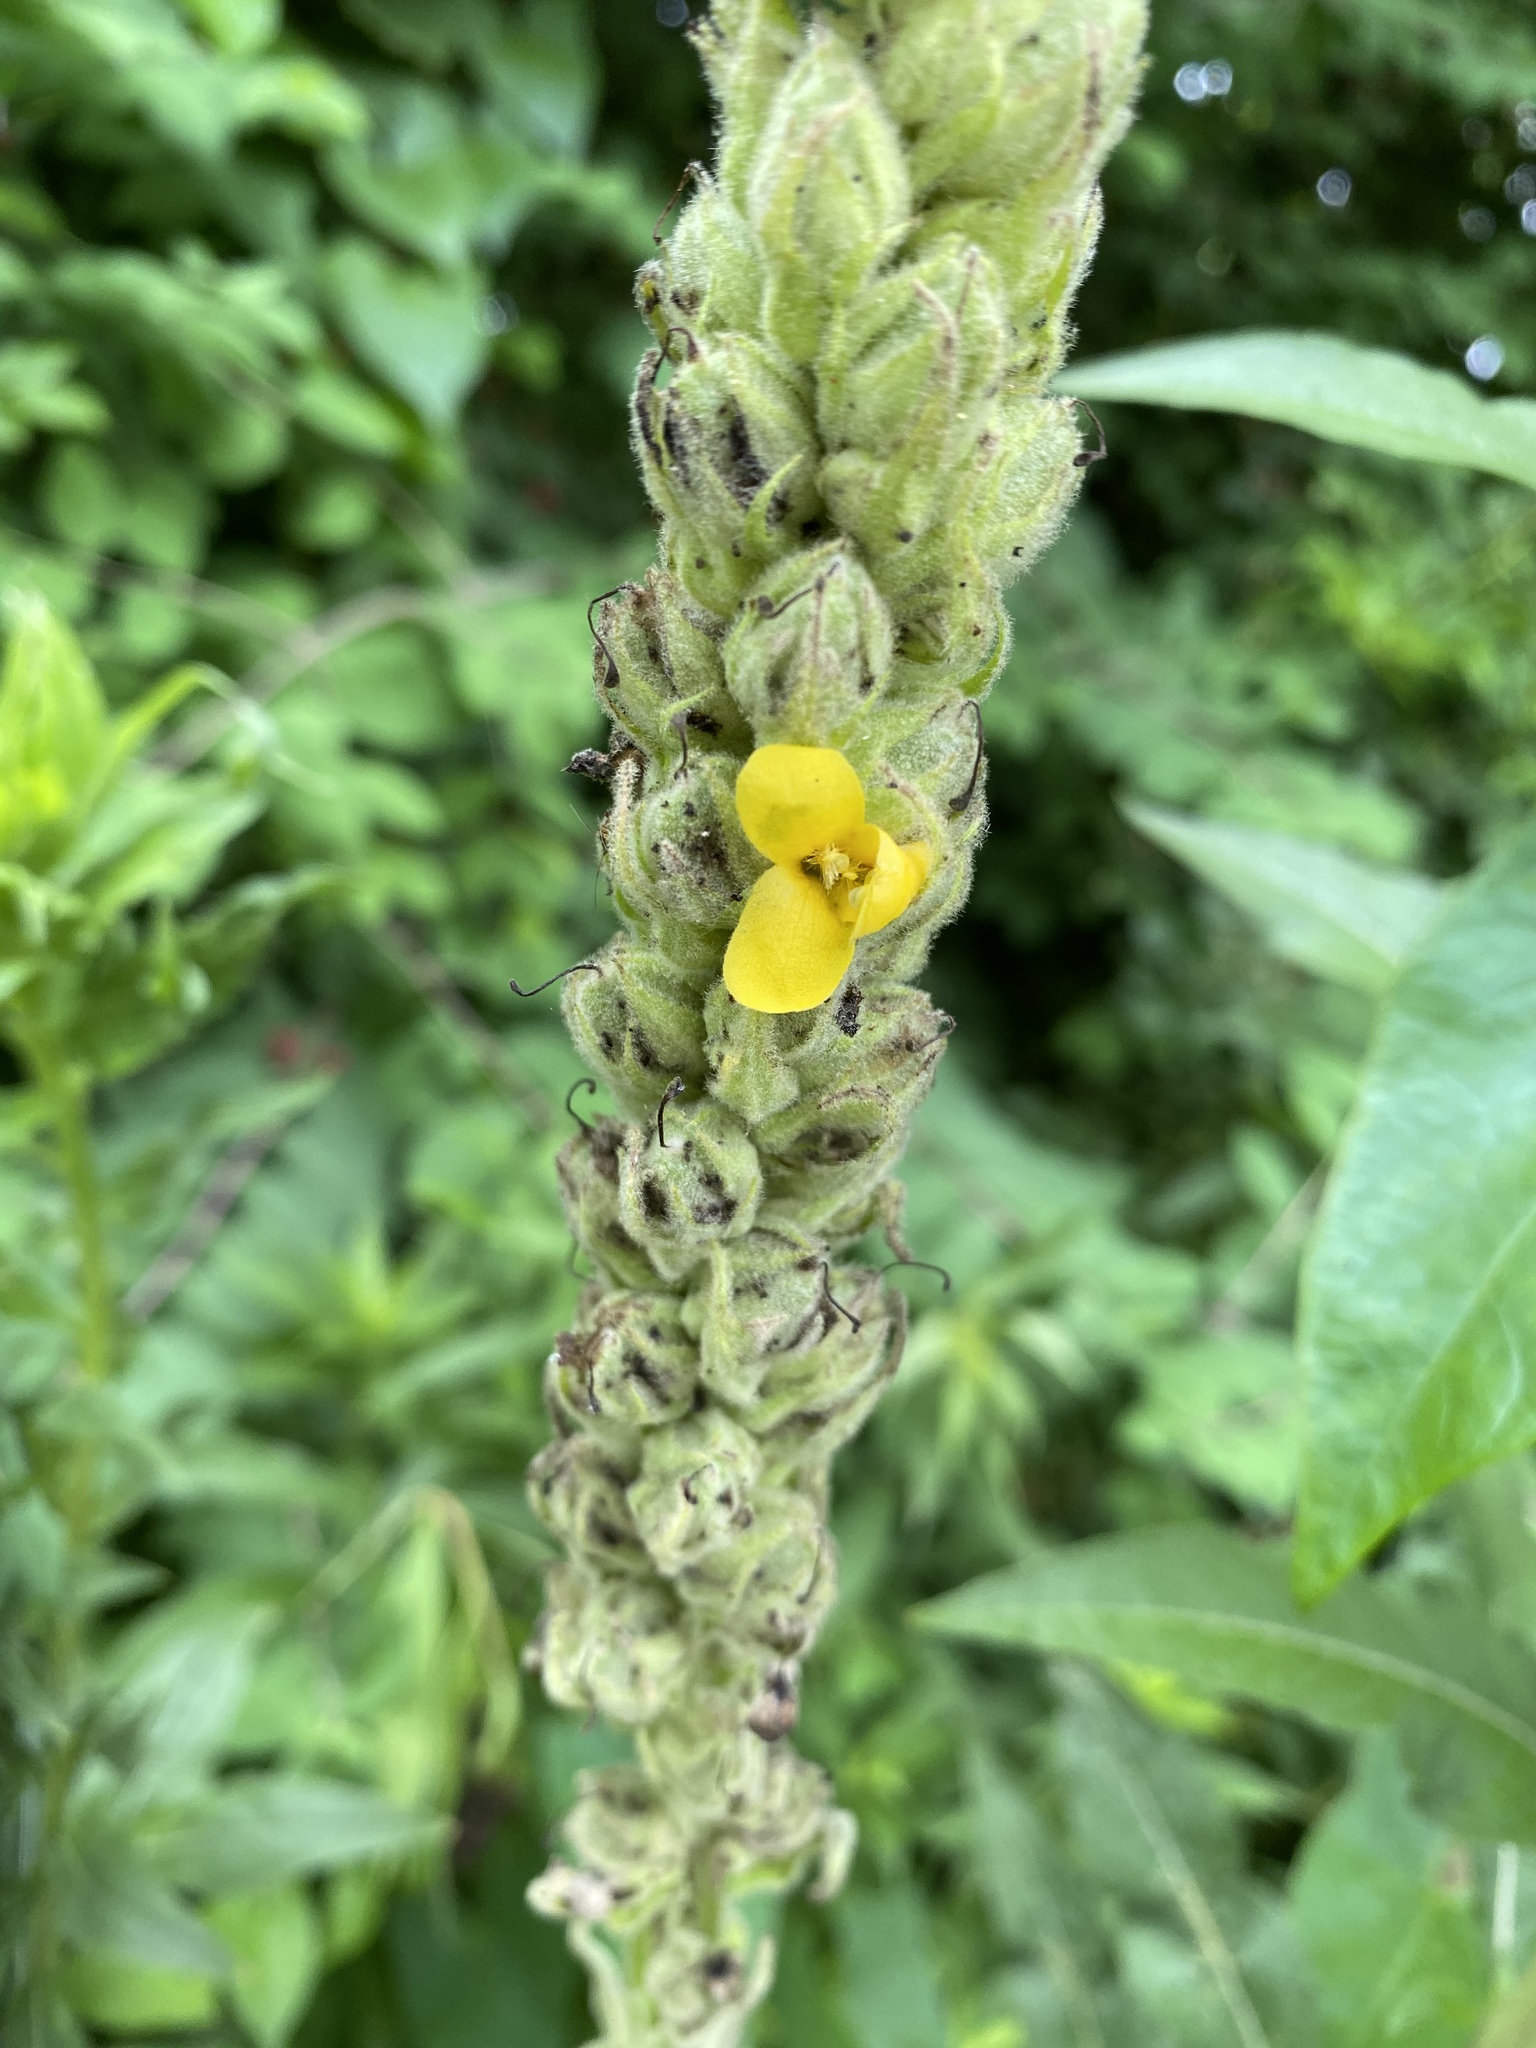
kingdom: Plantae
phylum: Tracheophyta
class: Magnoliopsida
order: Lamiales
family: Scrophulariaceae
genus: Verbascum
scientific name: Verbascum thapsus
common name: Common mullein
